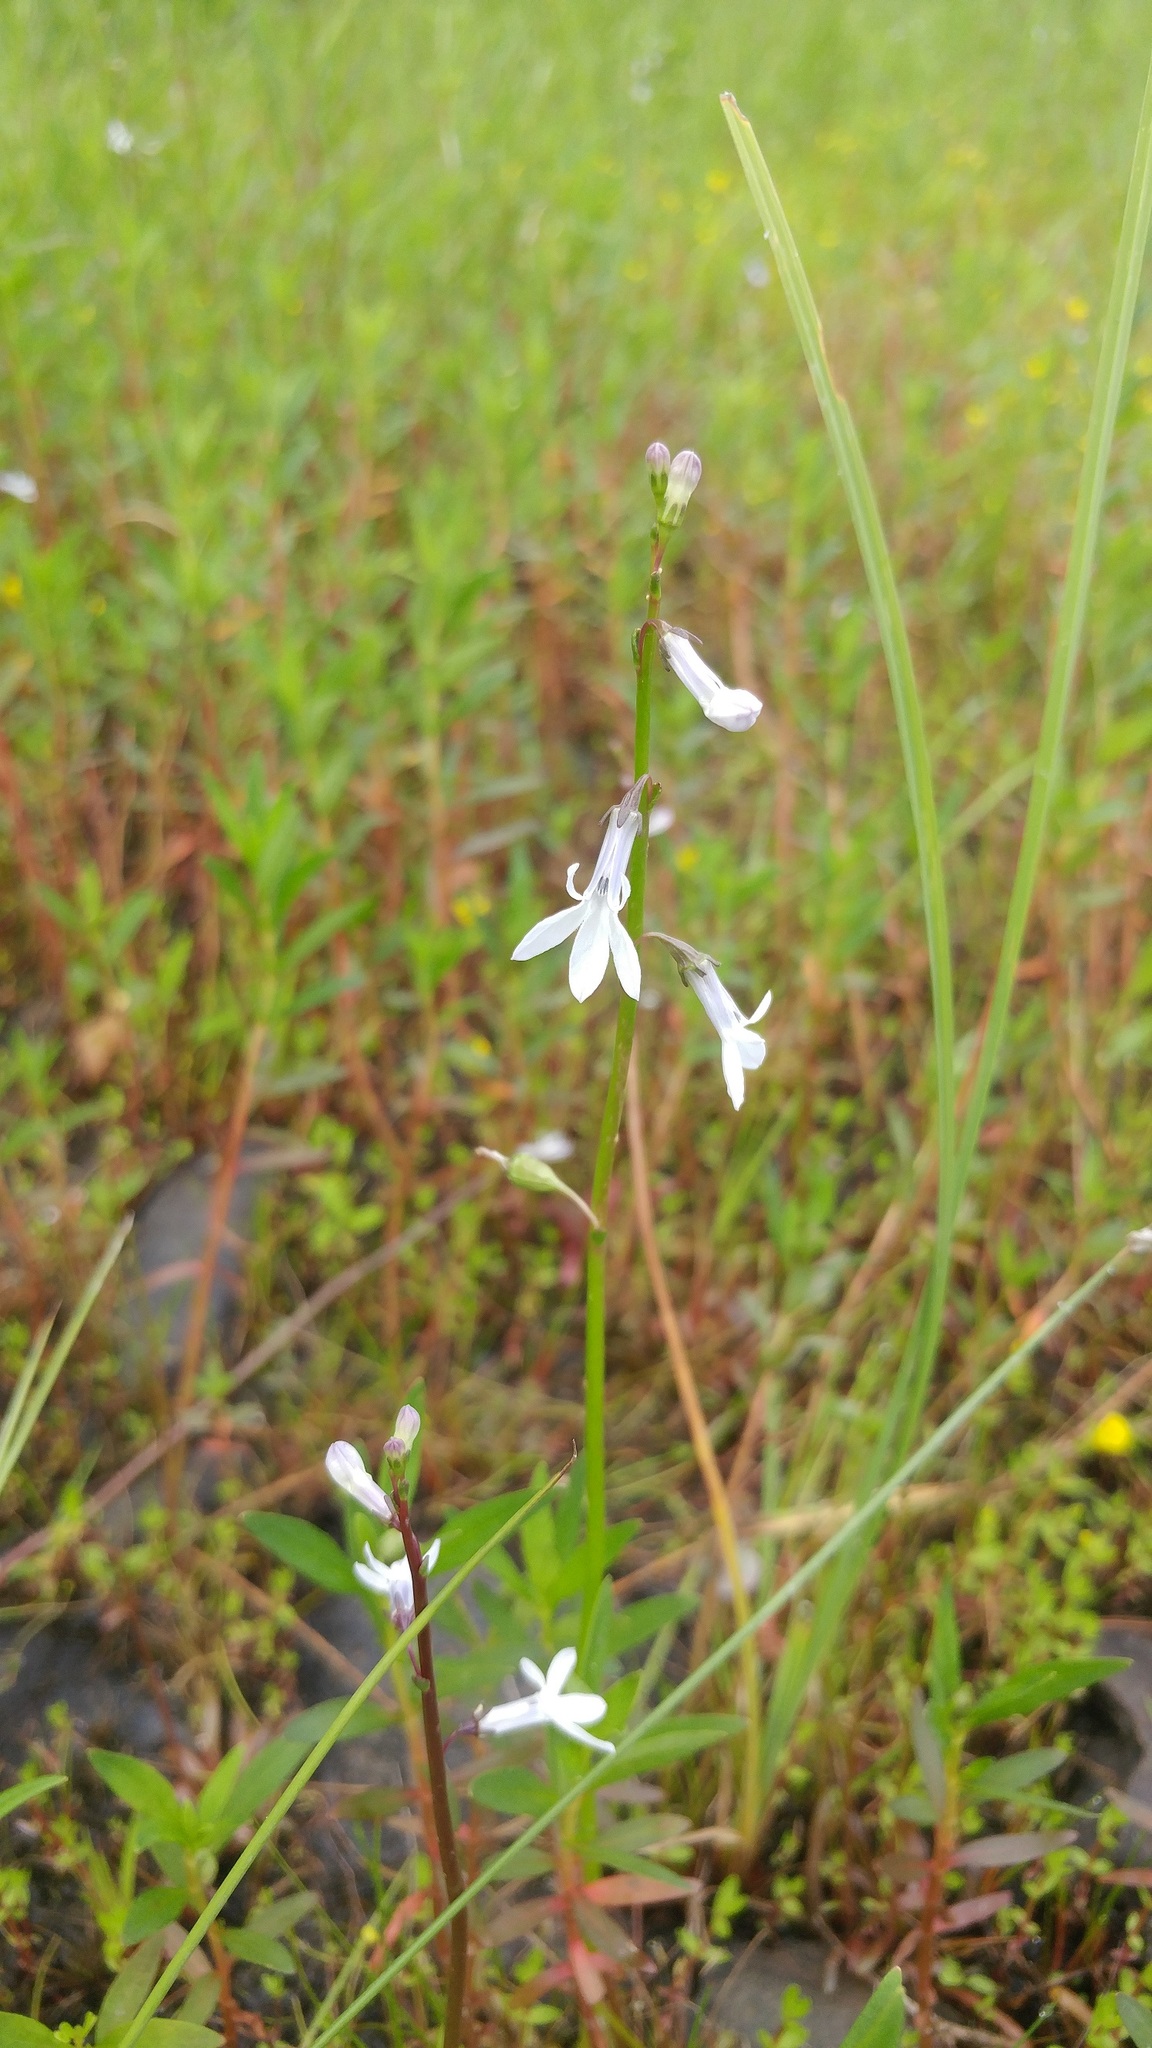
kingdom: Plantae
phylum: Tracheophyta
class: Magnoliopsida
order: Asterales
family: Campanulaceae
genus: Lobelia
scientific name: Lobelia dortmanna
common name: Water lobelia
